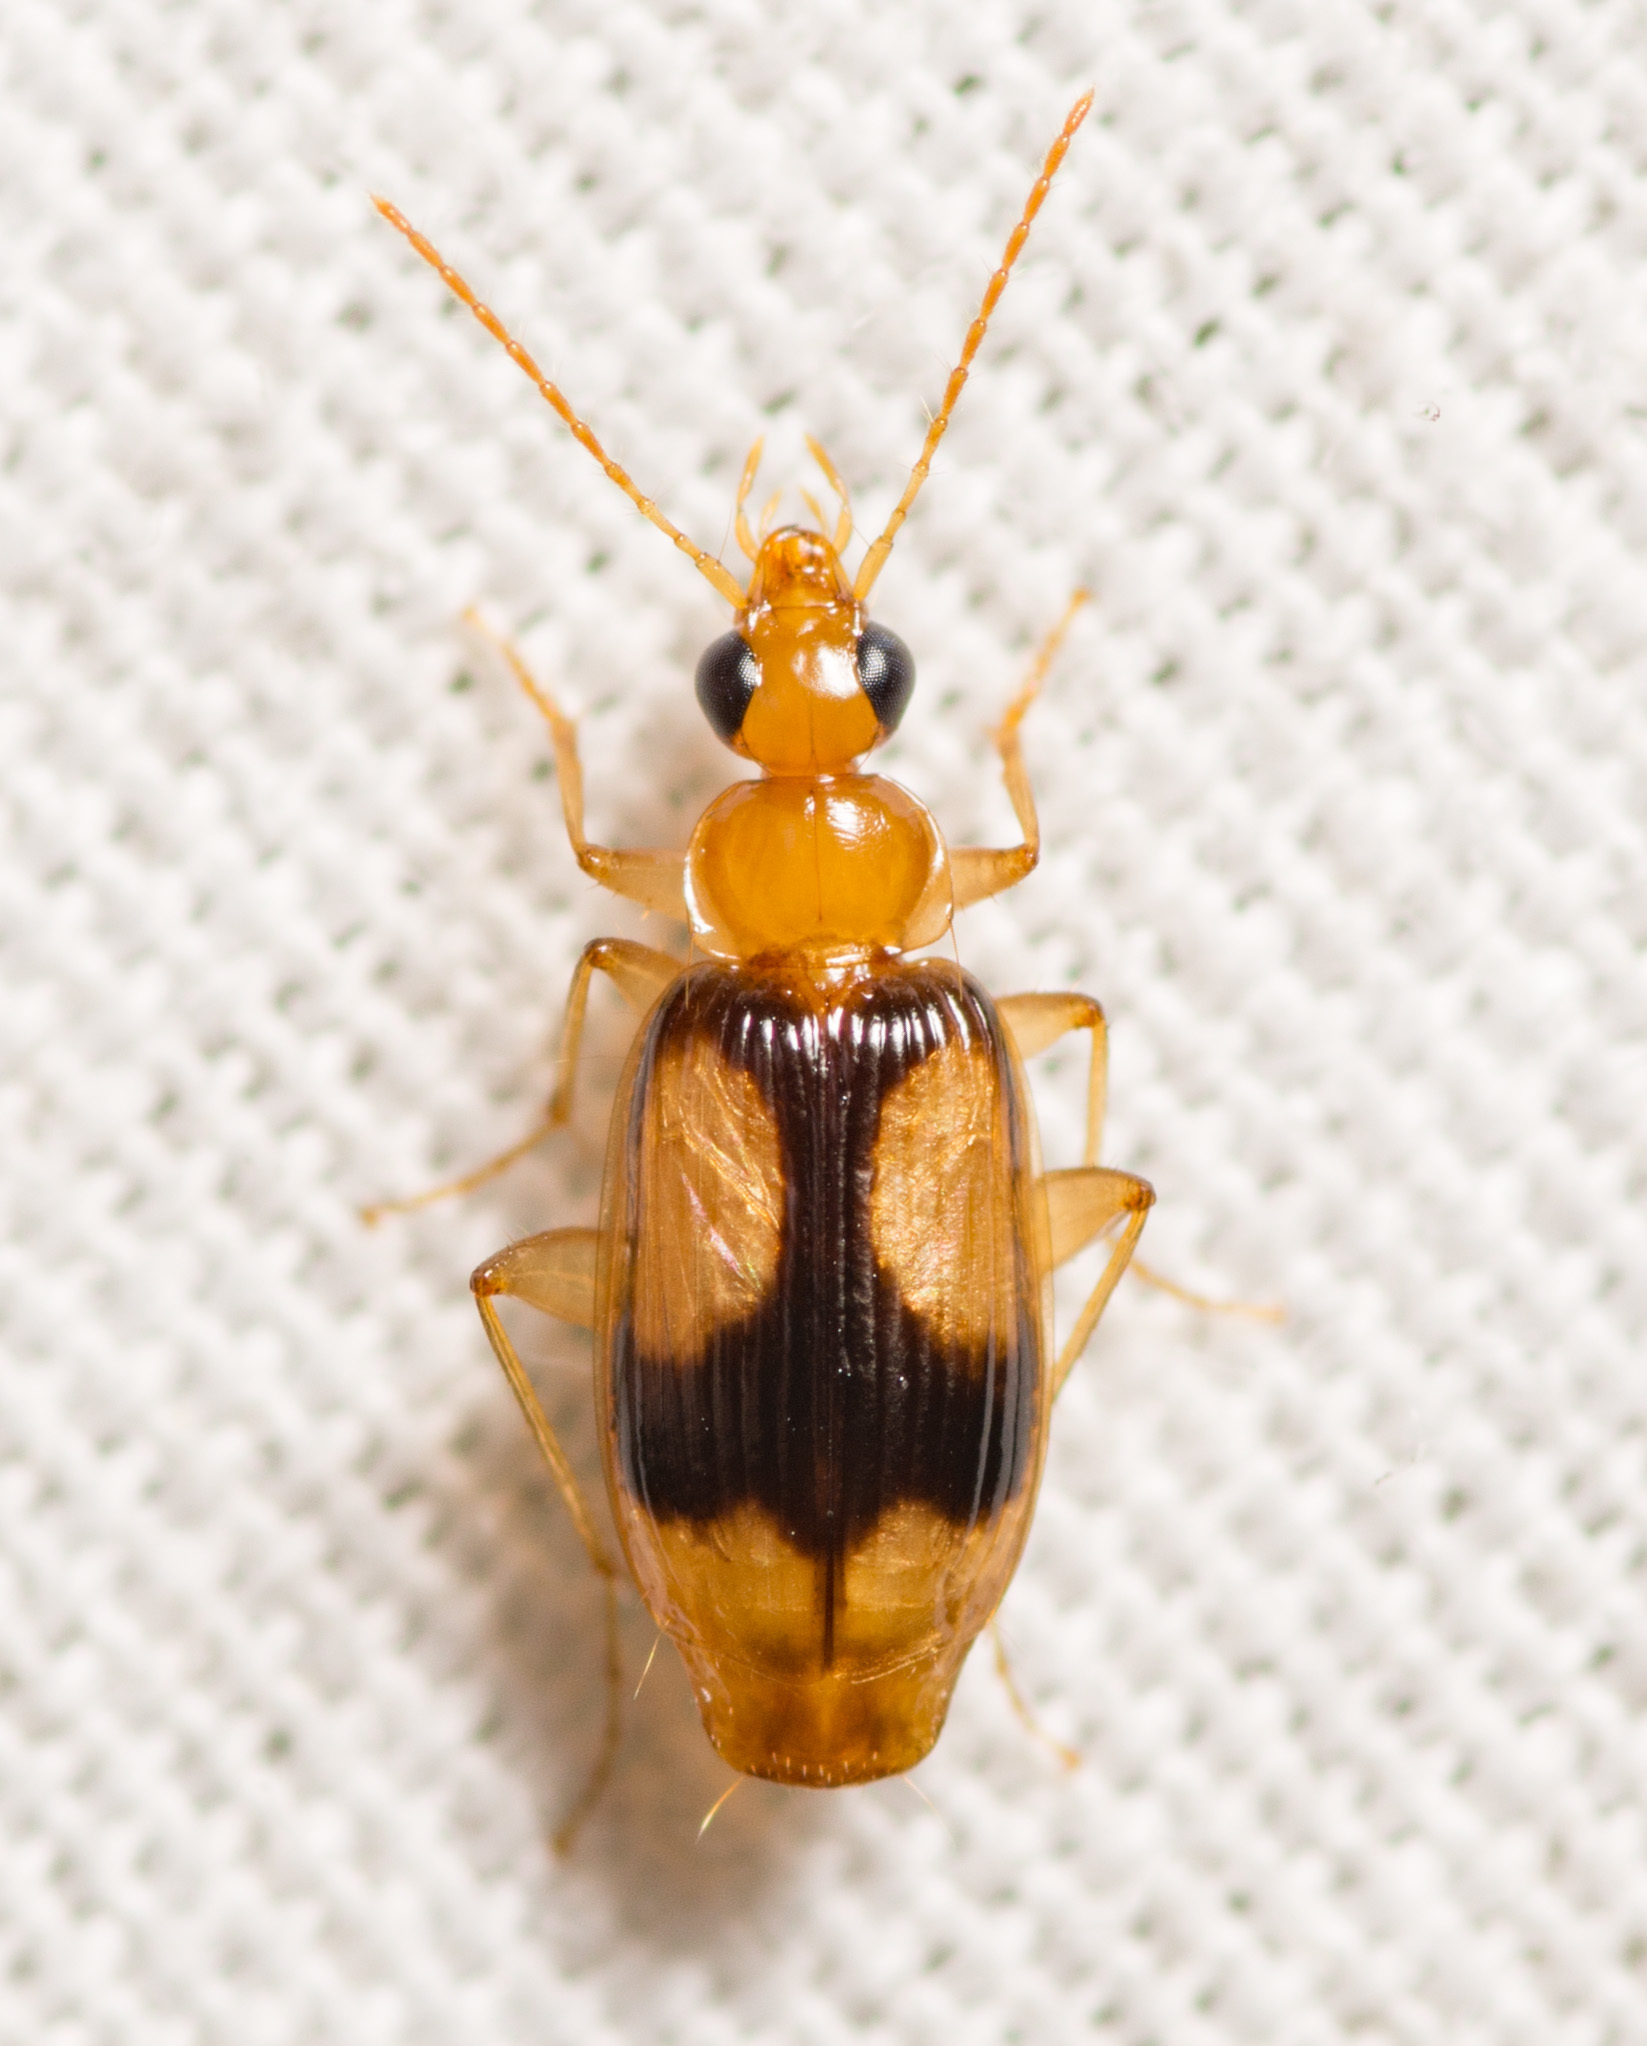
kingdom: Animalia
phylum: Arthropoda
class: Insecta
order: Coleoptera
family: Carabidae
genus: Nemotarsus
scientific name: Nemotarsus elegans
